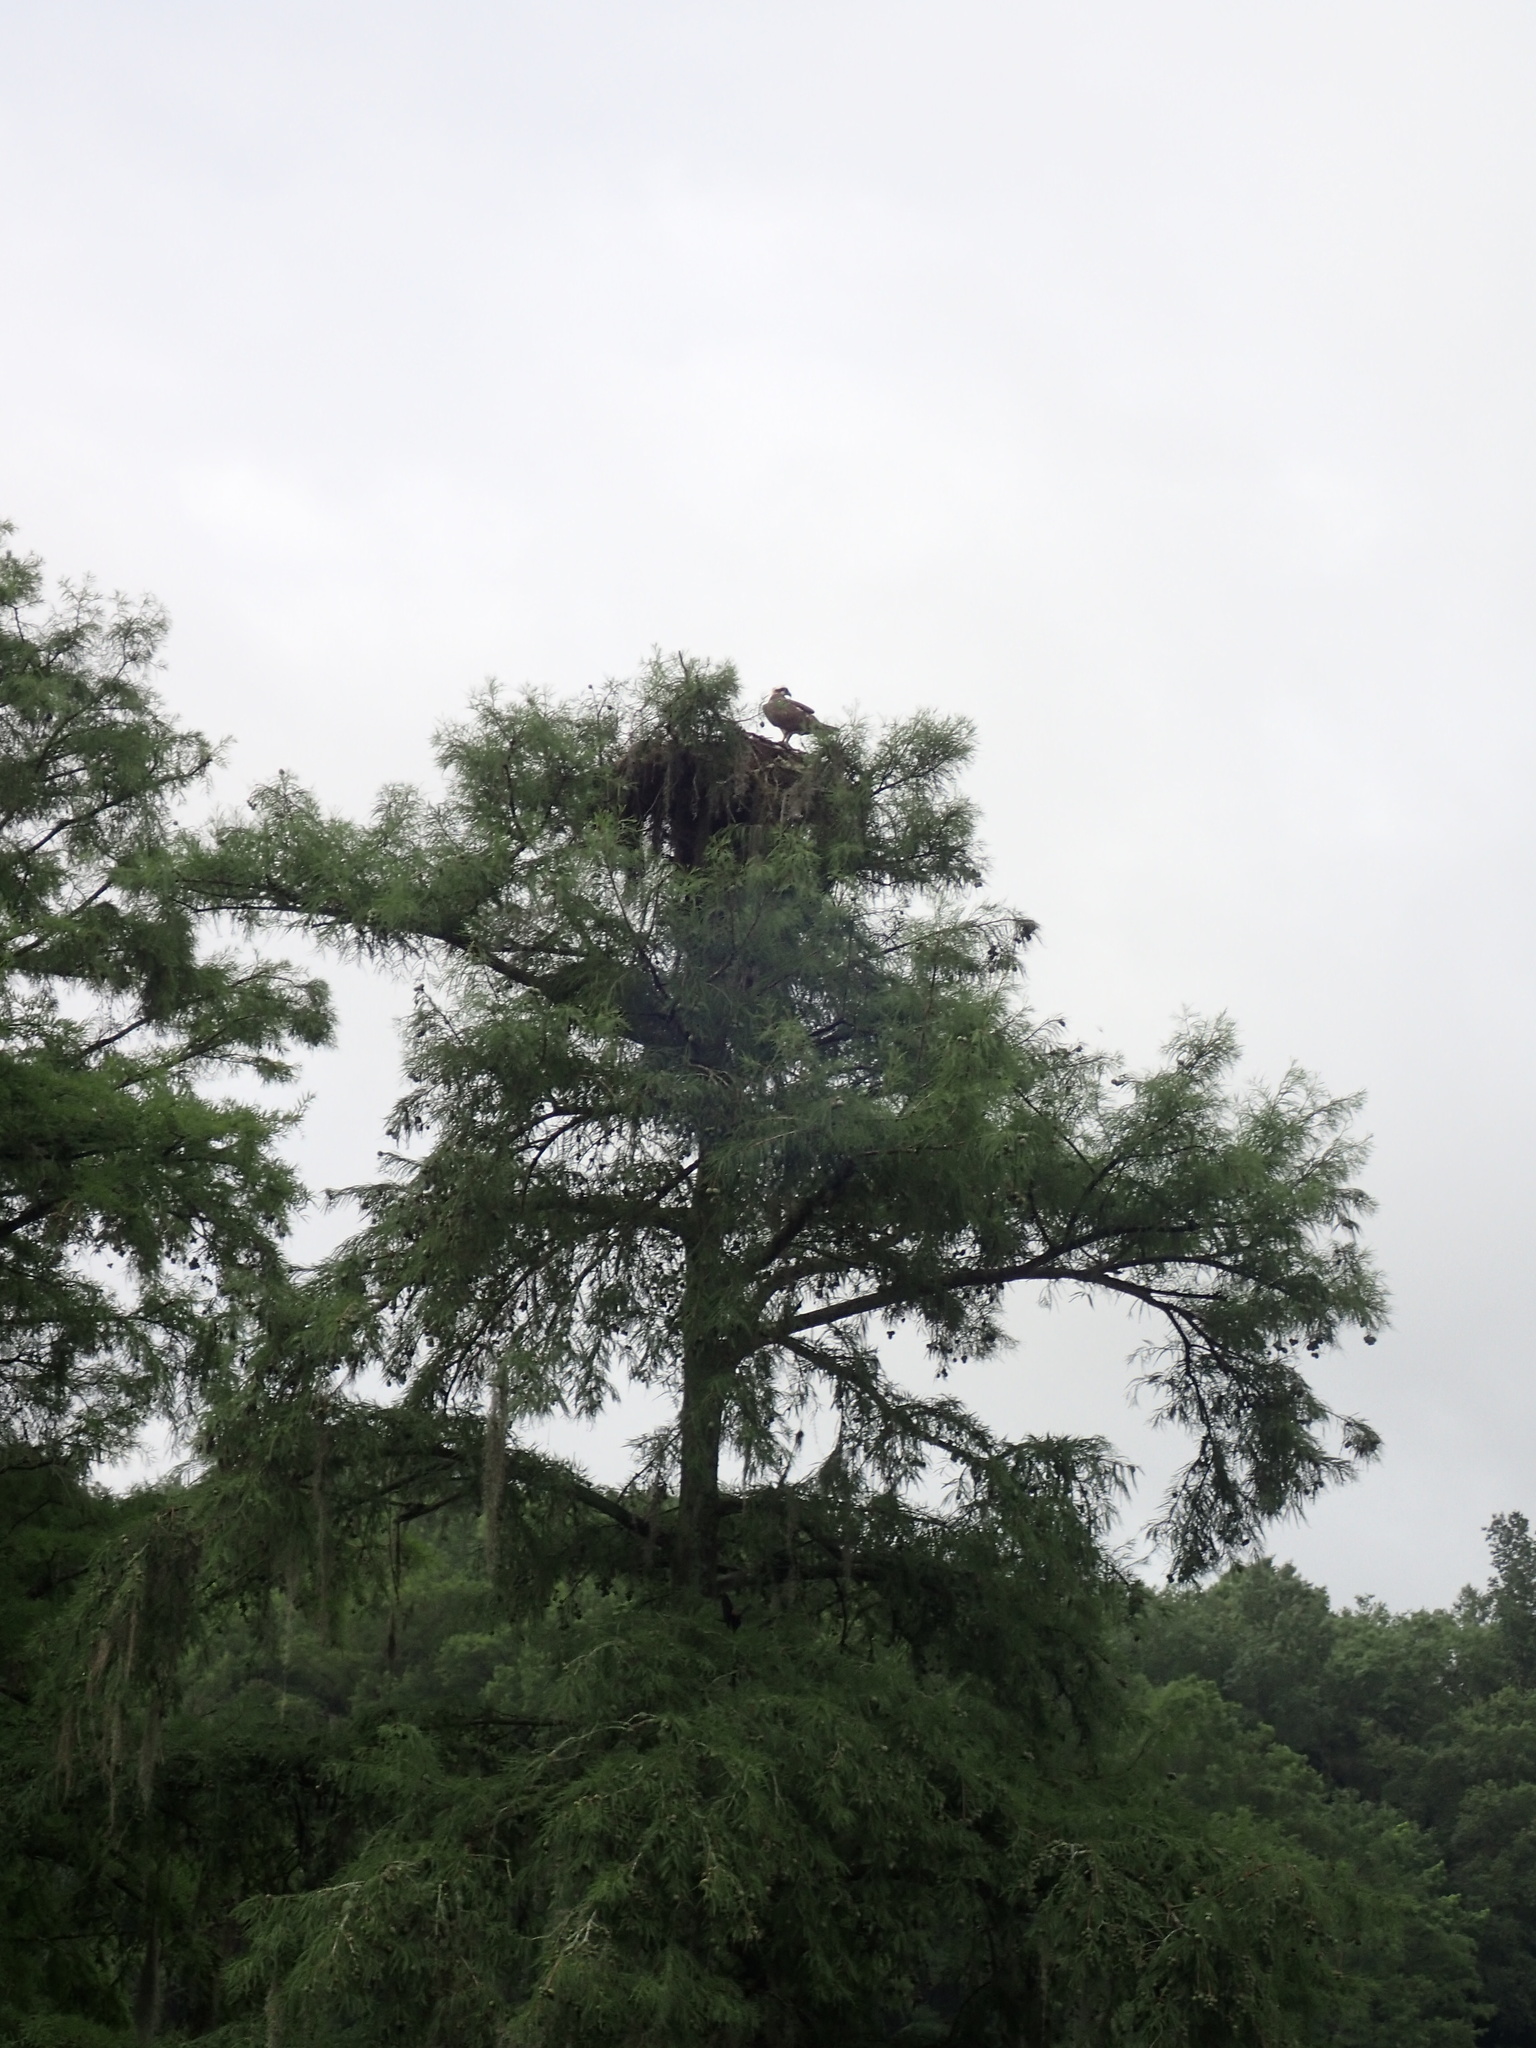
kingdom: Animalia
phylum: Chordata
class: Aves
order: Accipitriformes
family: Pandionidae
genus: Pandion
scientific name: Pandion haliaetus
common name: Osprey
